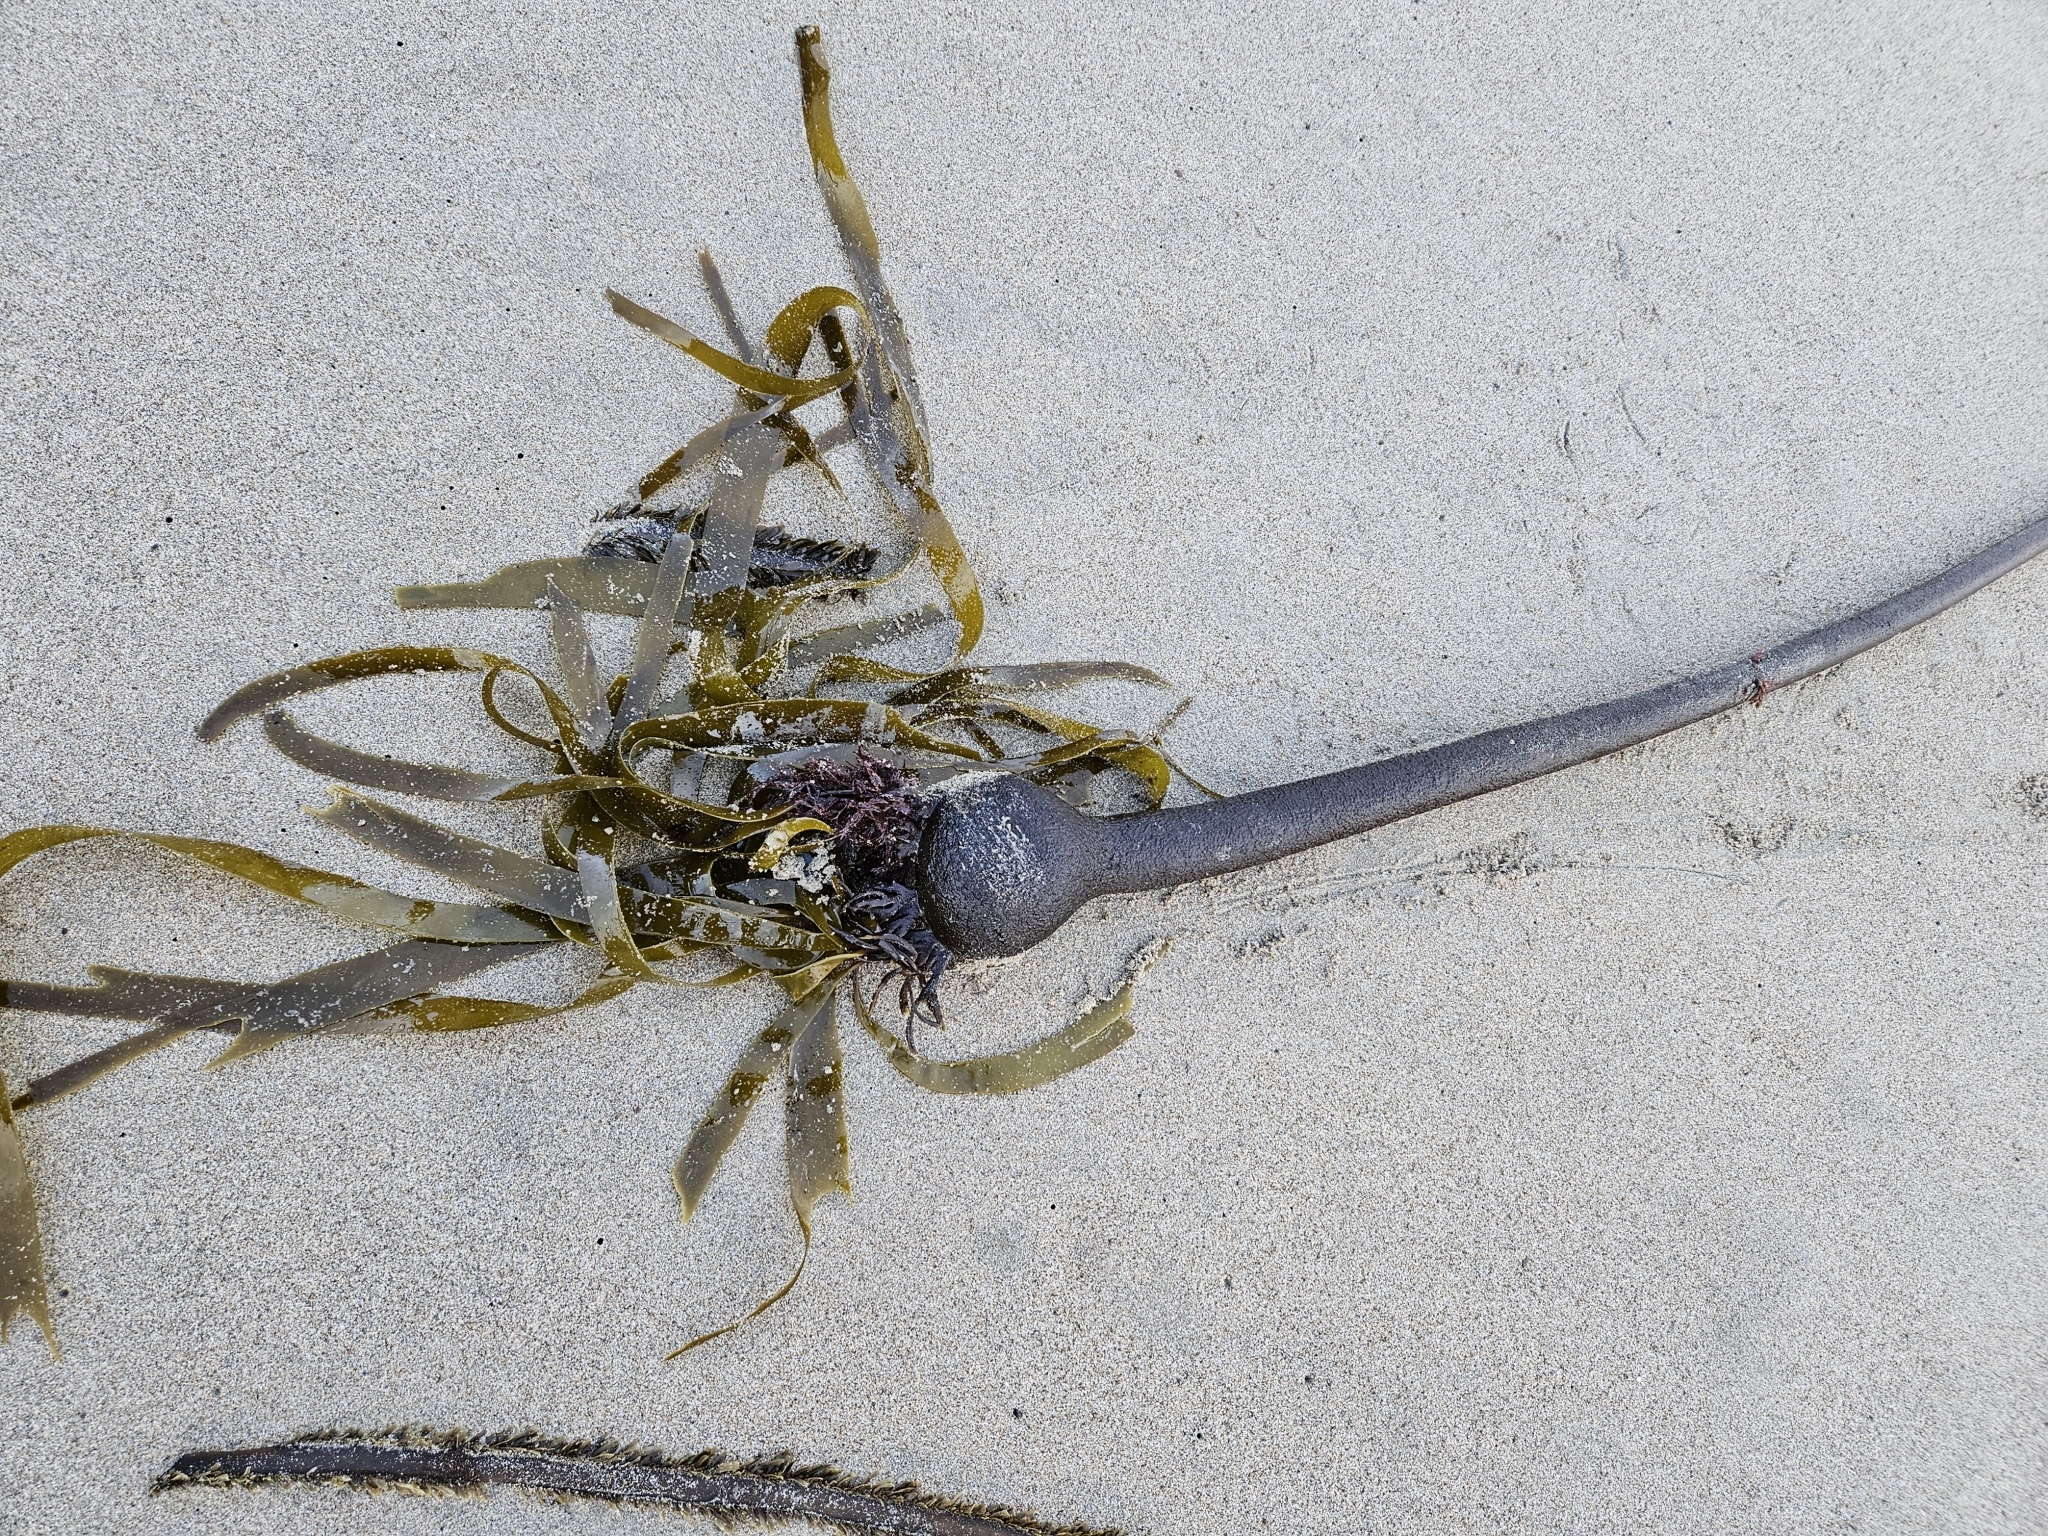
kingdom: Chromista
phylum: Ochrophyta
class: Phaeophyceae
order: Laminariales
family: Laminariaceae
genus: Nereocystis
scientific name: Nereocystis luetkeana
